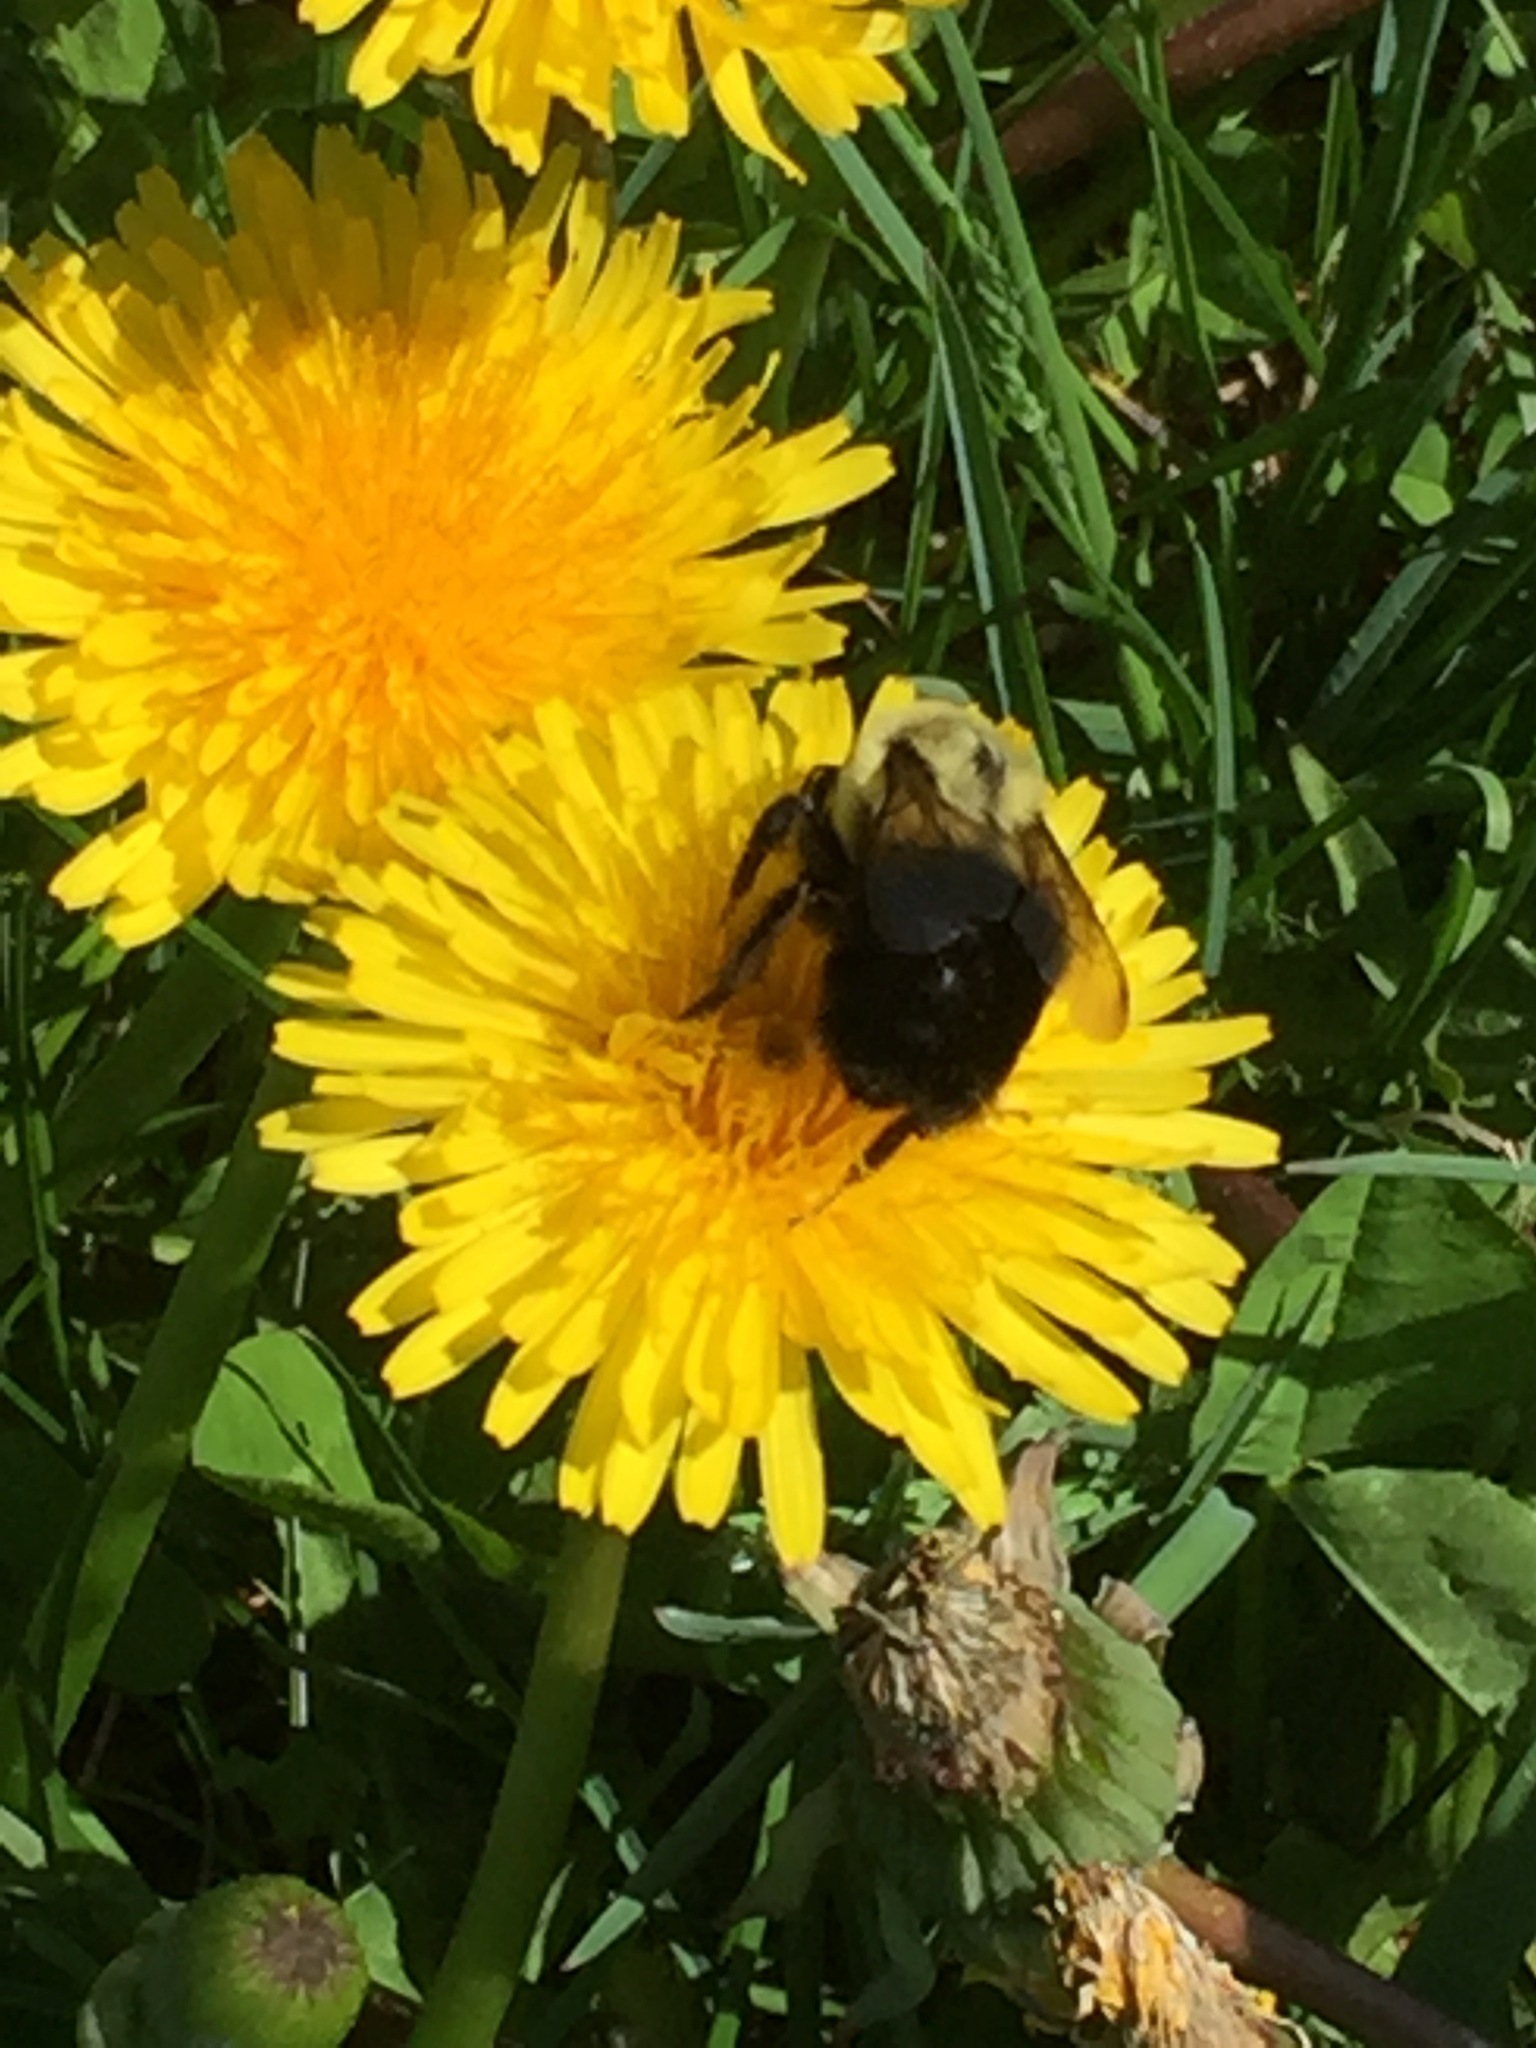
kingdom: Animalia
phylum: Arthropoda
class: Insecta
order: Hymenoptera
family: Apidae
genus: Bombus
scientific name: Bombus impatiens
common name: Common eastern bumble bee
